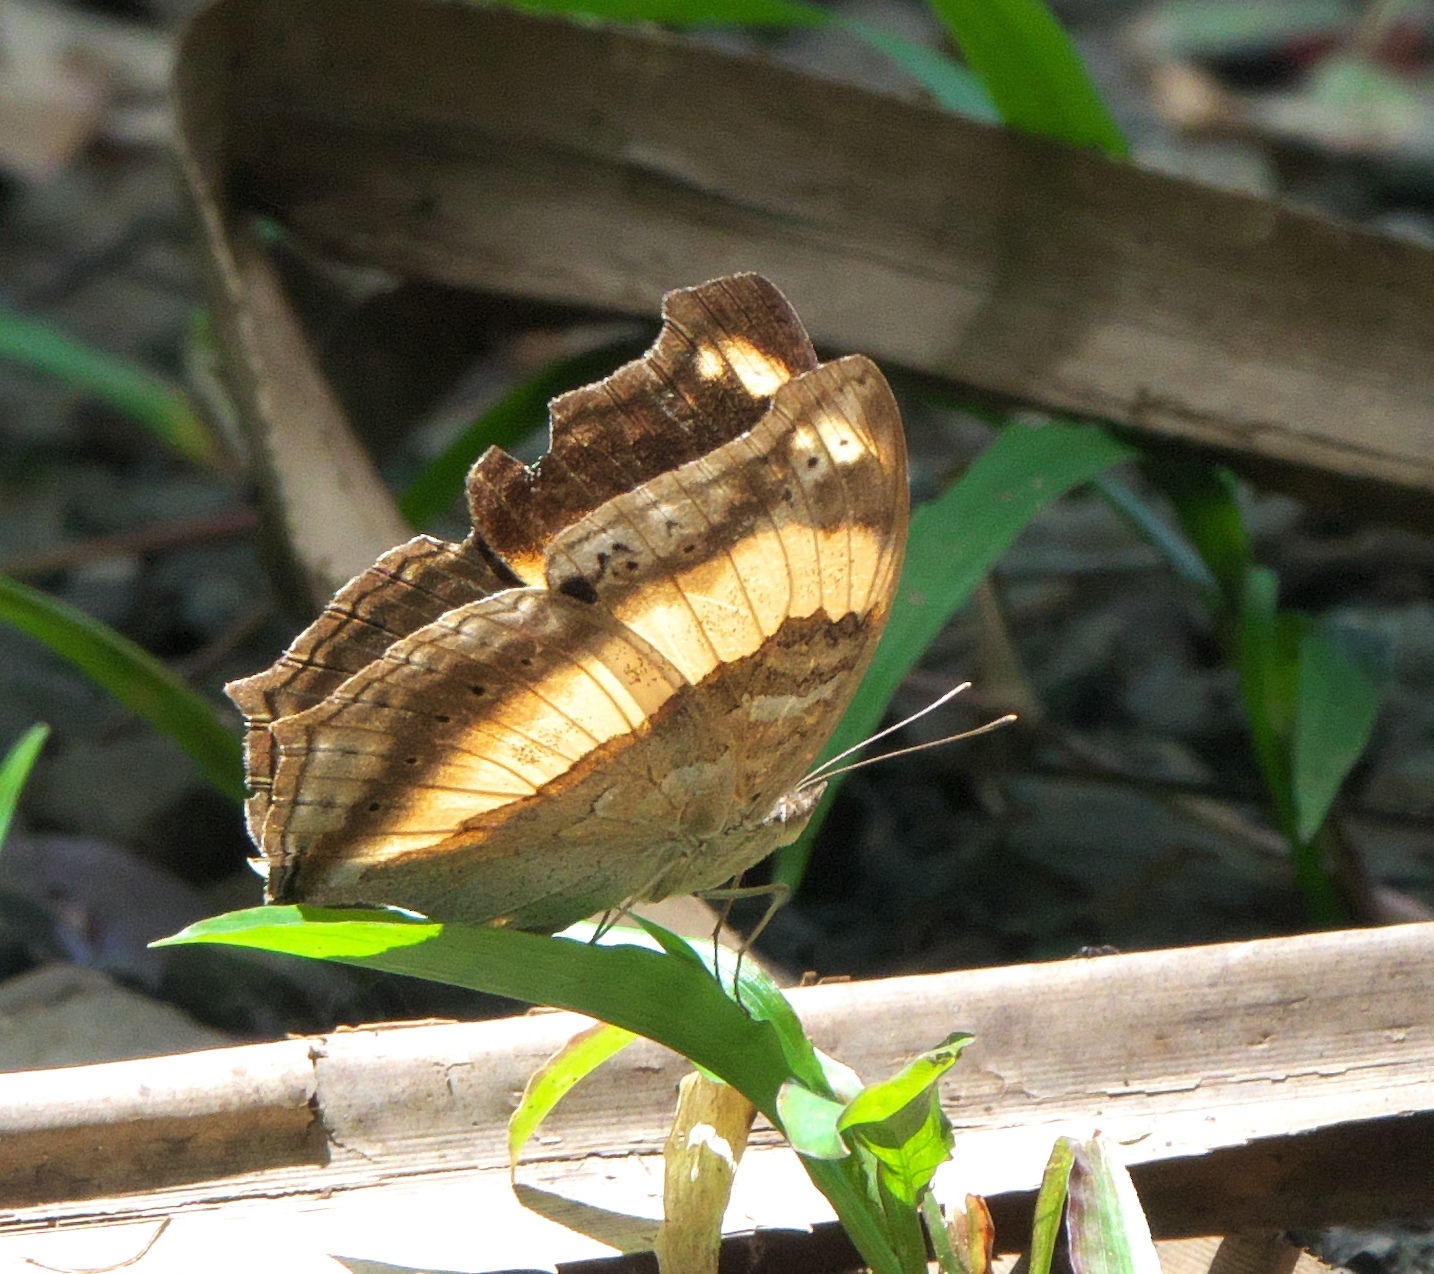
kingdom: Animalia
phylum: Arthropoda
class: Insecta
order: Lepidoptera
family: Nymphalidae
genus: Yoma
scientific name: Yoma sabina
